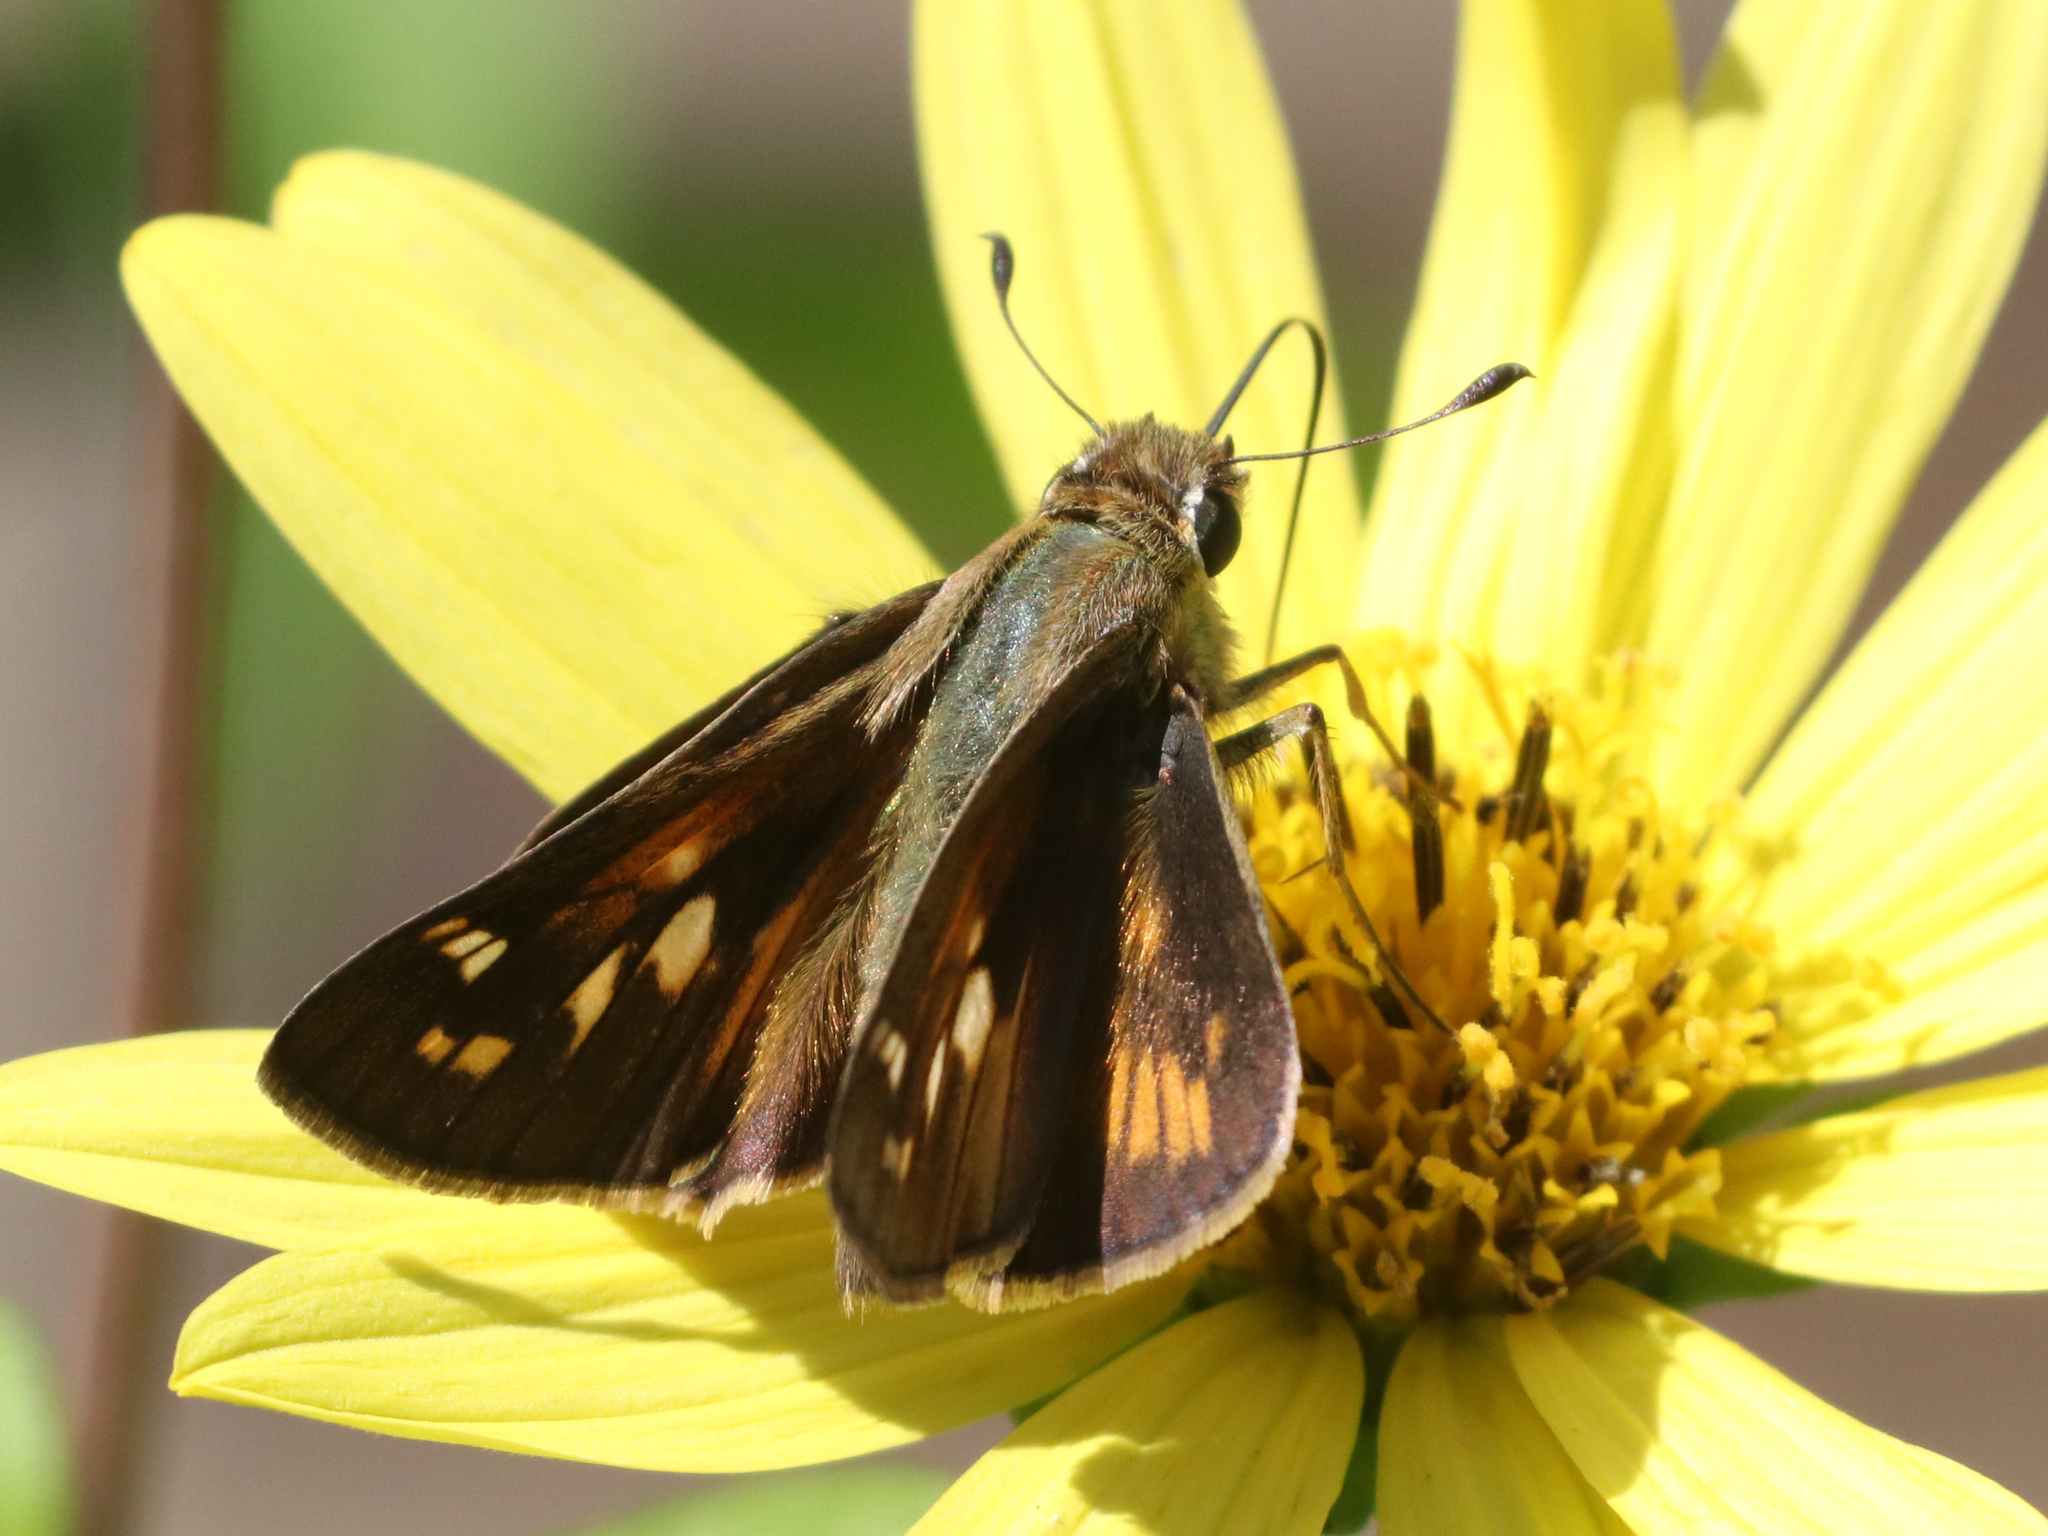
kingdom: Animalia
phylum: Arthropoda
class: Insecta
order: Lepidoptera
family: Hesperiidae
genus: Atalopedes
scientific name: Atalopedes
